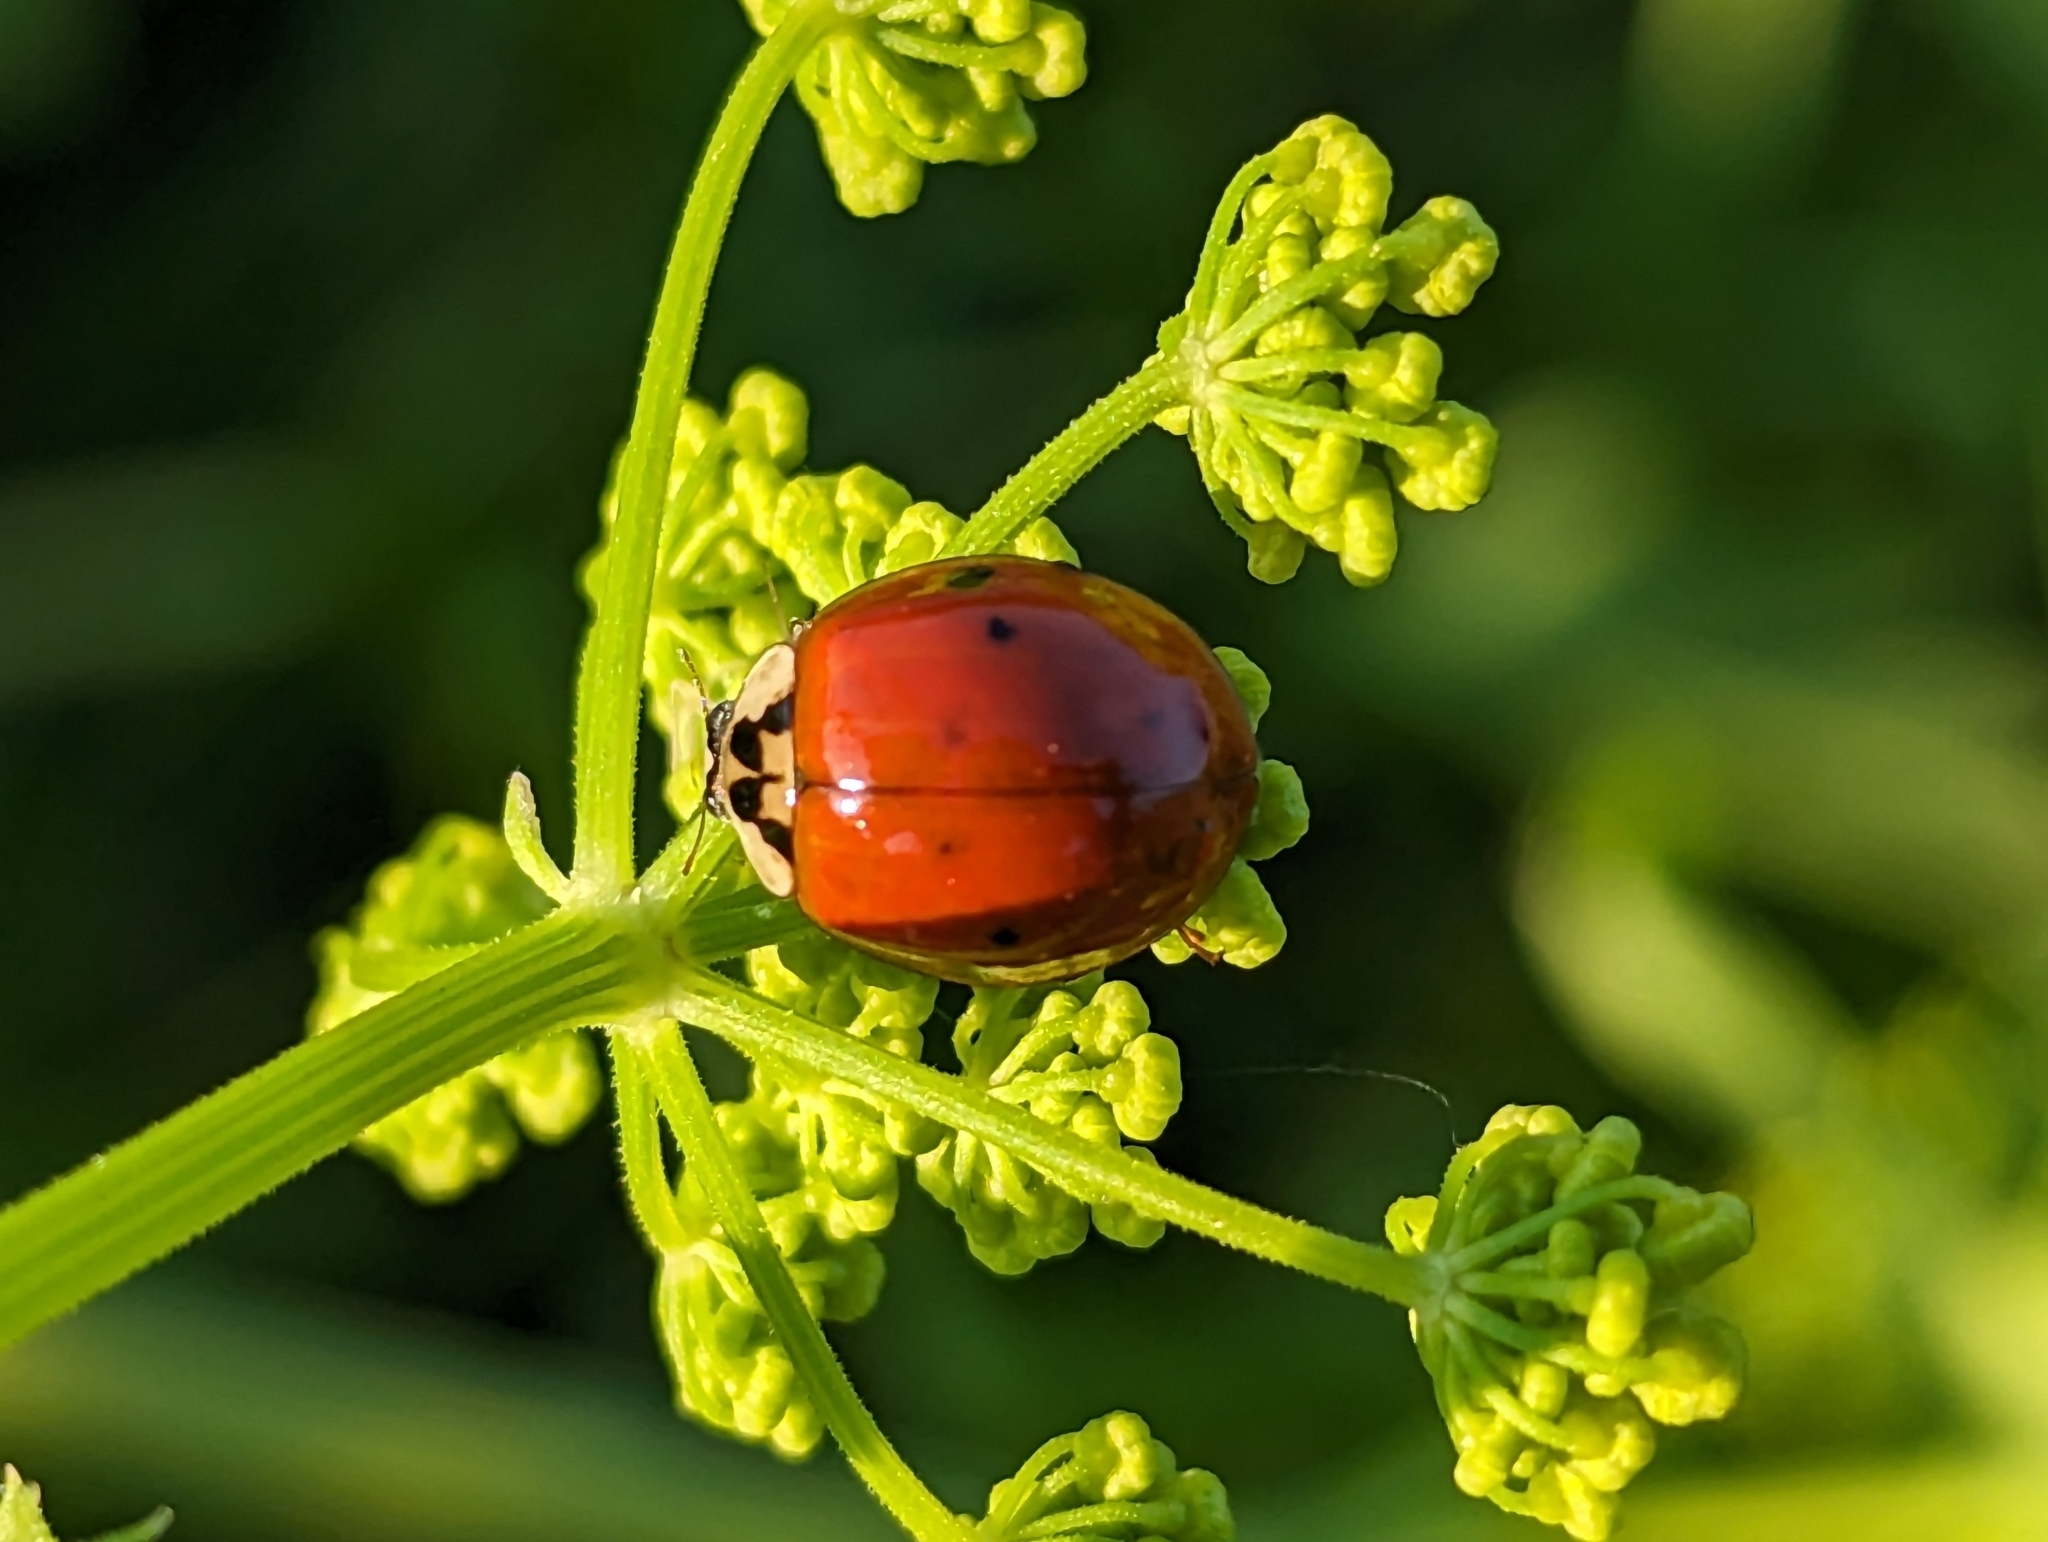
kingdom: Animalia
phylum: Arthropoda
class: Insecta
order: Coleoptera
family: Coccinellidae
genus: Harmonia
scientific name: Harmonia axyridis
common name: Harlequin ladybird
